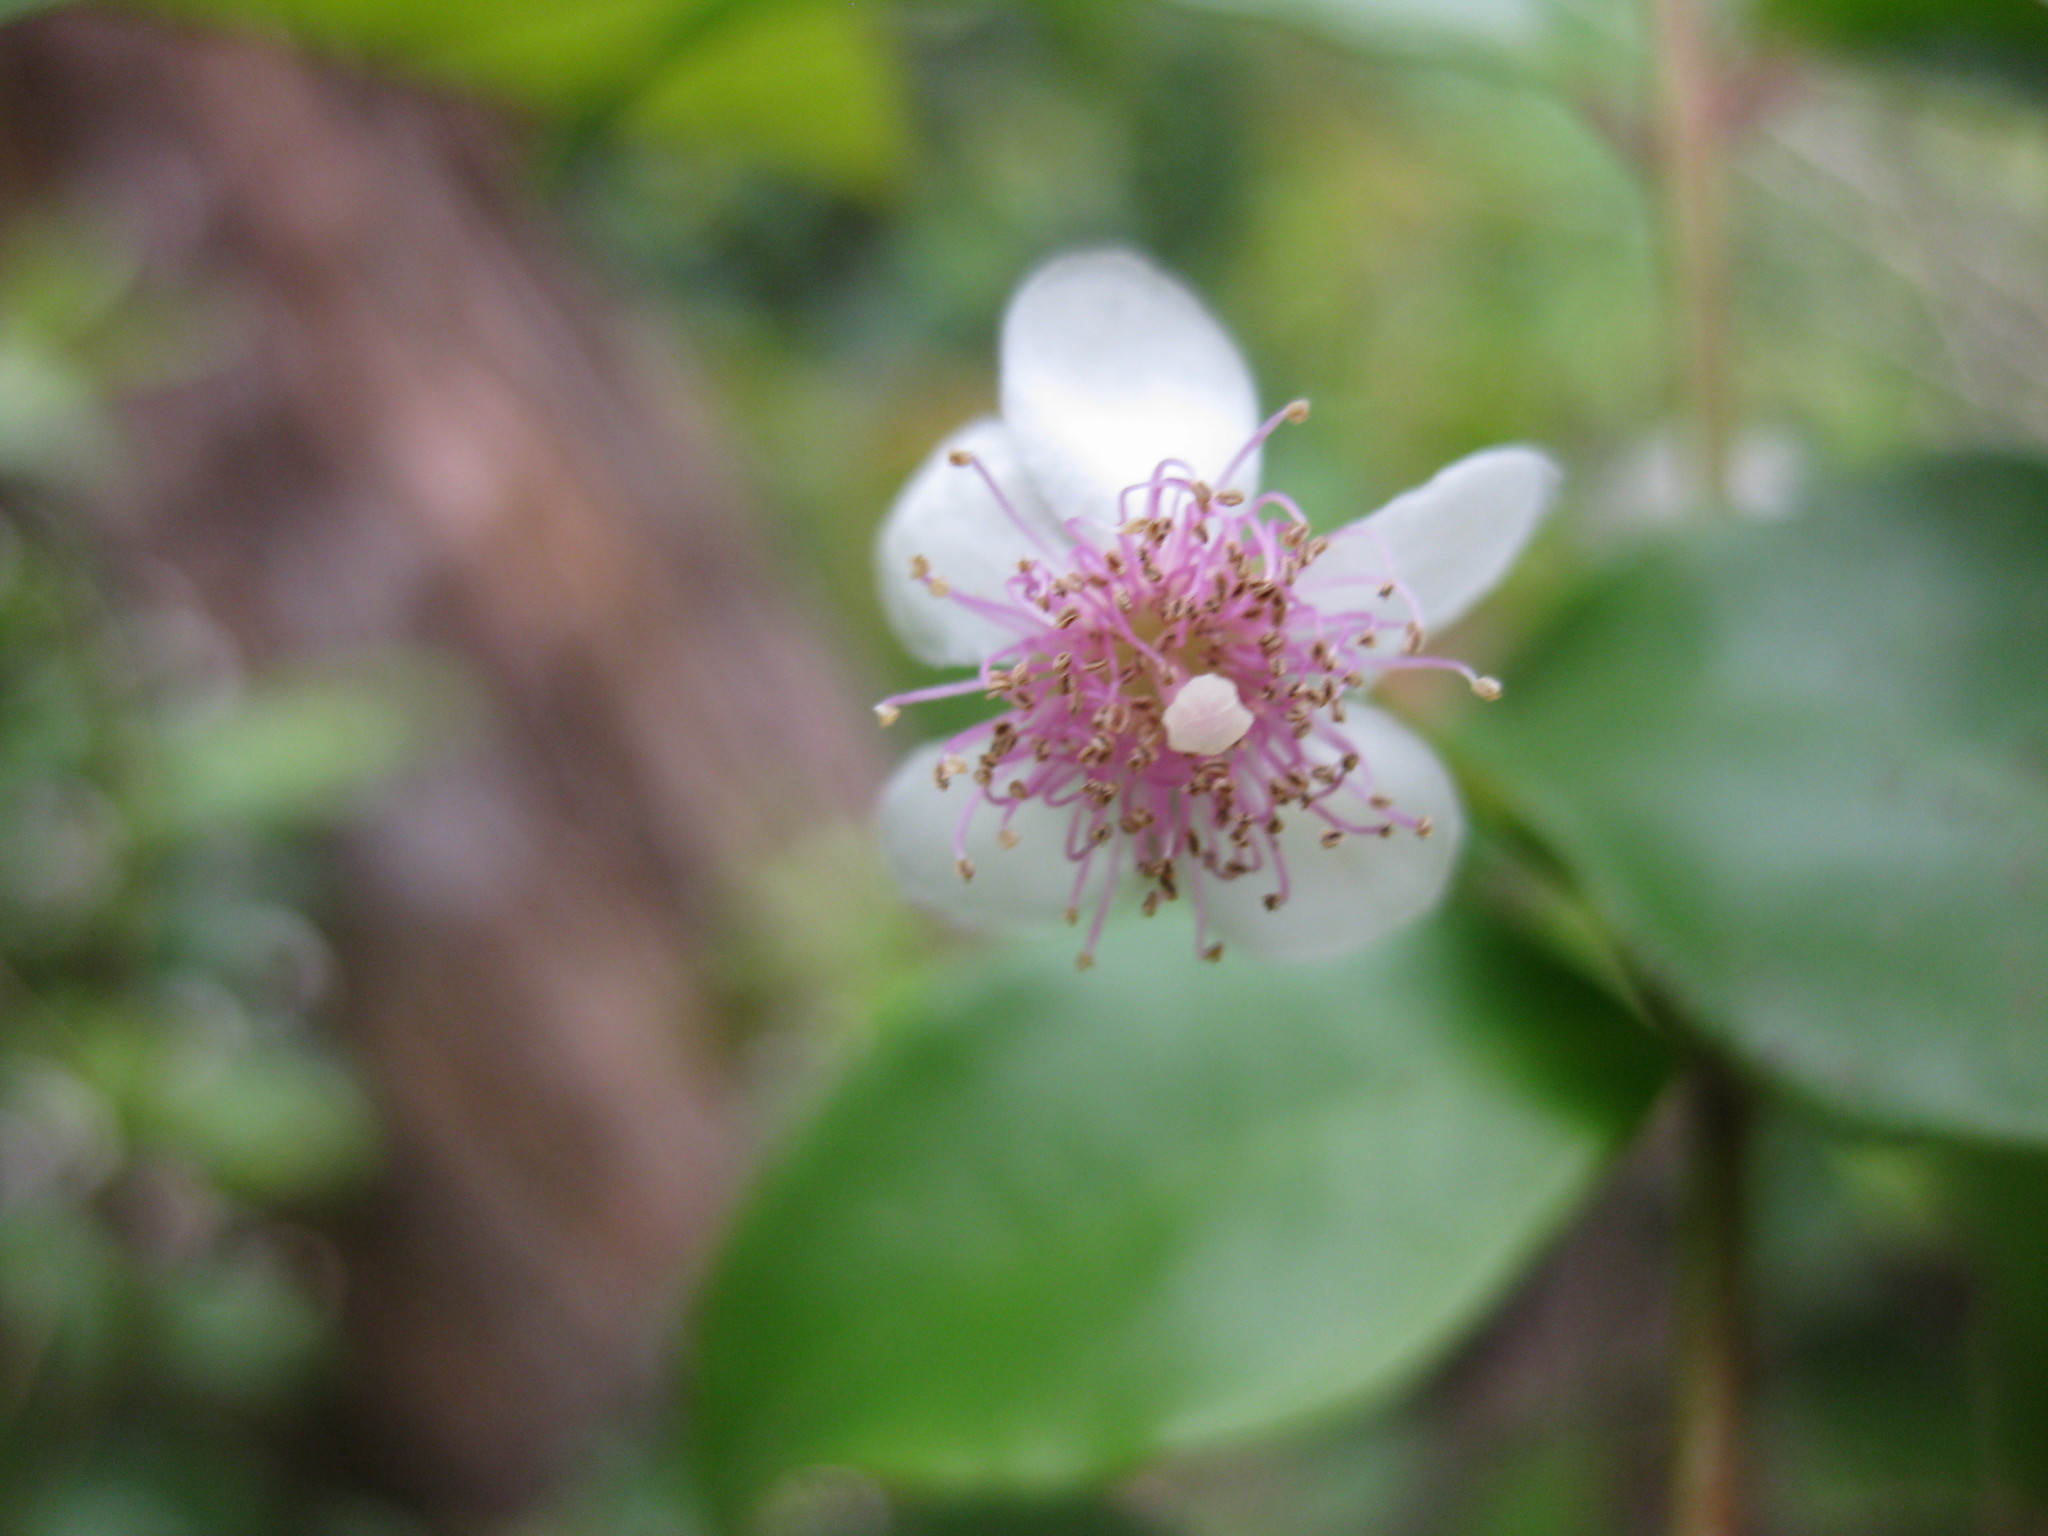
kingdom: Plantae
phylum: Tracheophyta
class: Magnoliopsida
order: Myrtales
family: Myrtaceae
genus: Rhodamnia
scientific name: Rhodamnia rubescens
